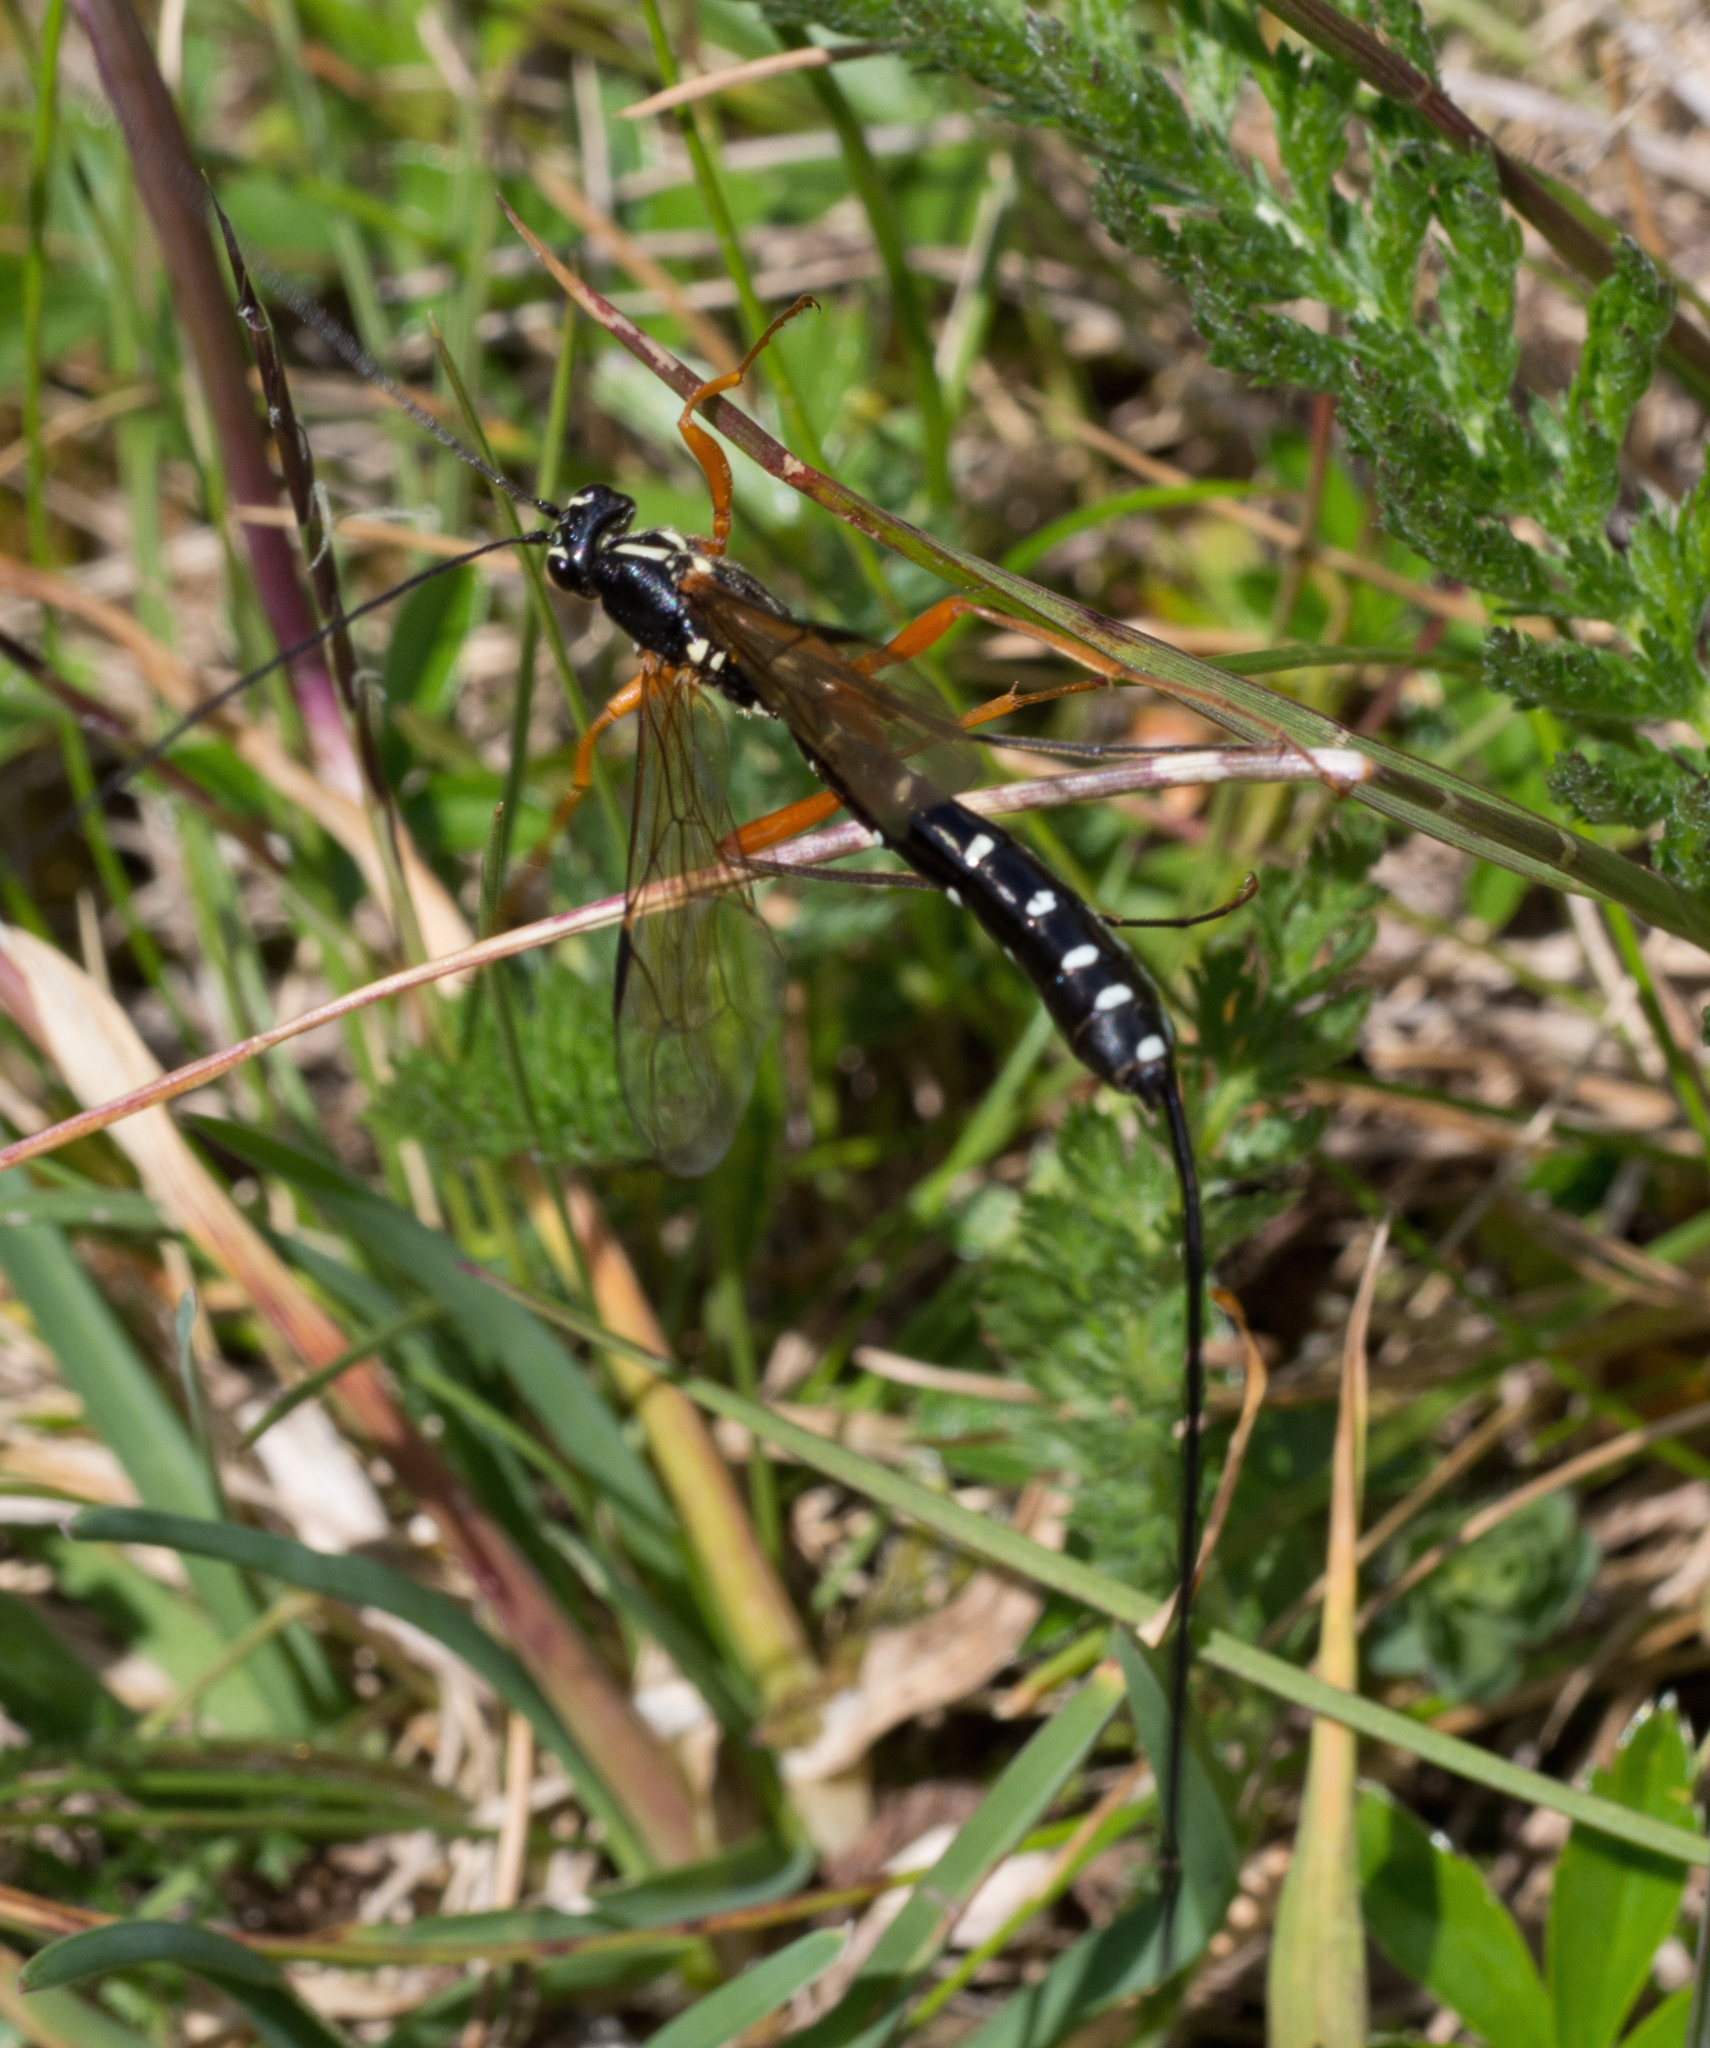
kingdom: Animalia
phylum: Arthropoda
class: Insecta
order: Hymenoptera
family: Ichneumonidae
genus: Rhyssa
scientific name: Rhyssa persuasoria
